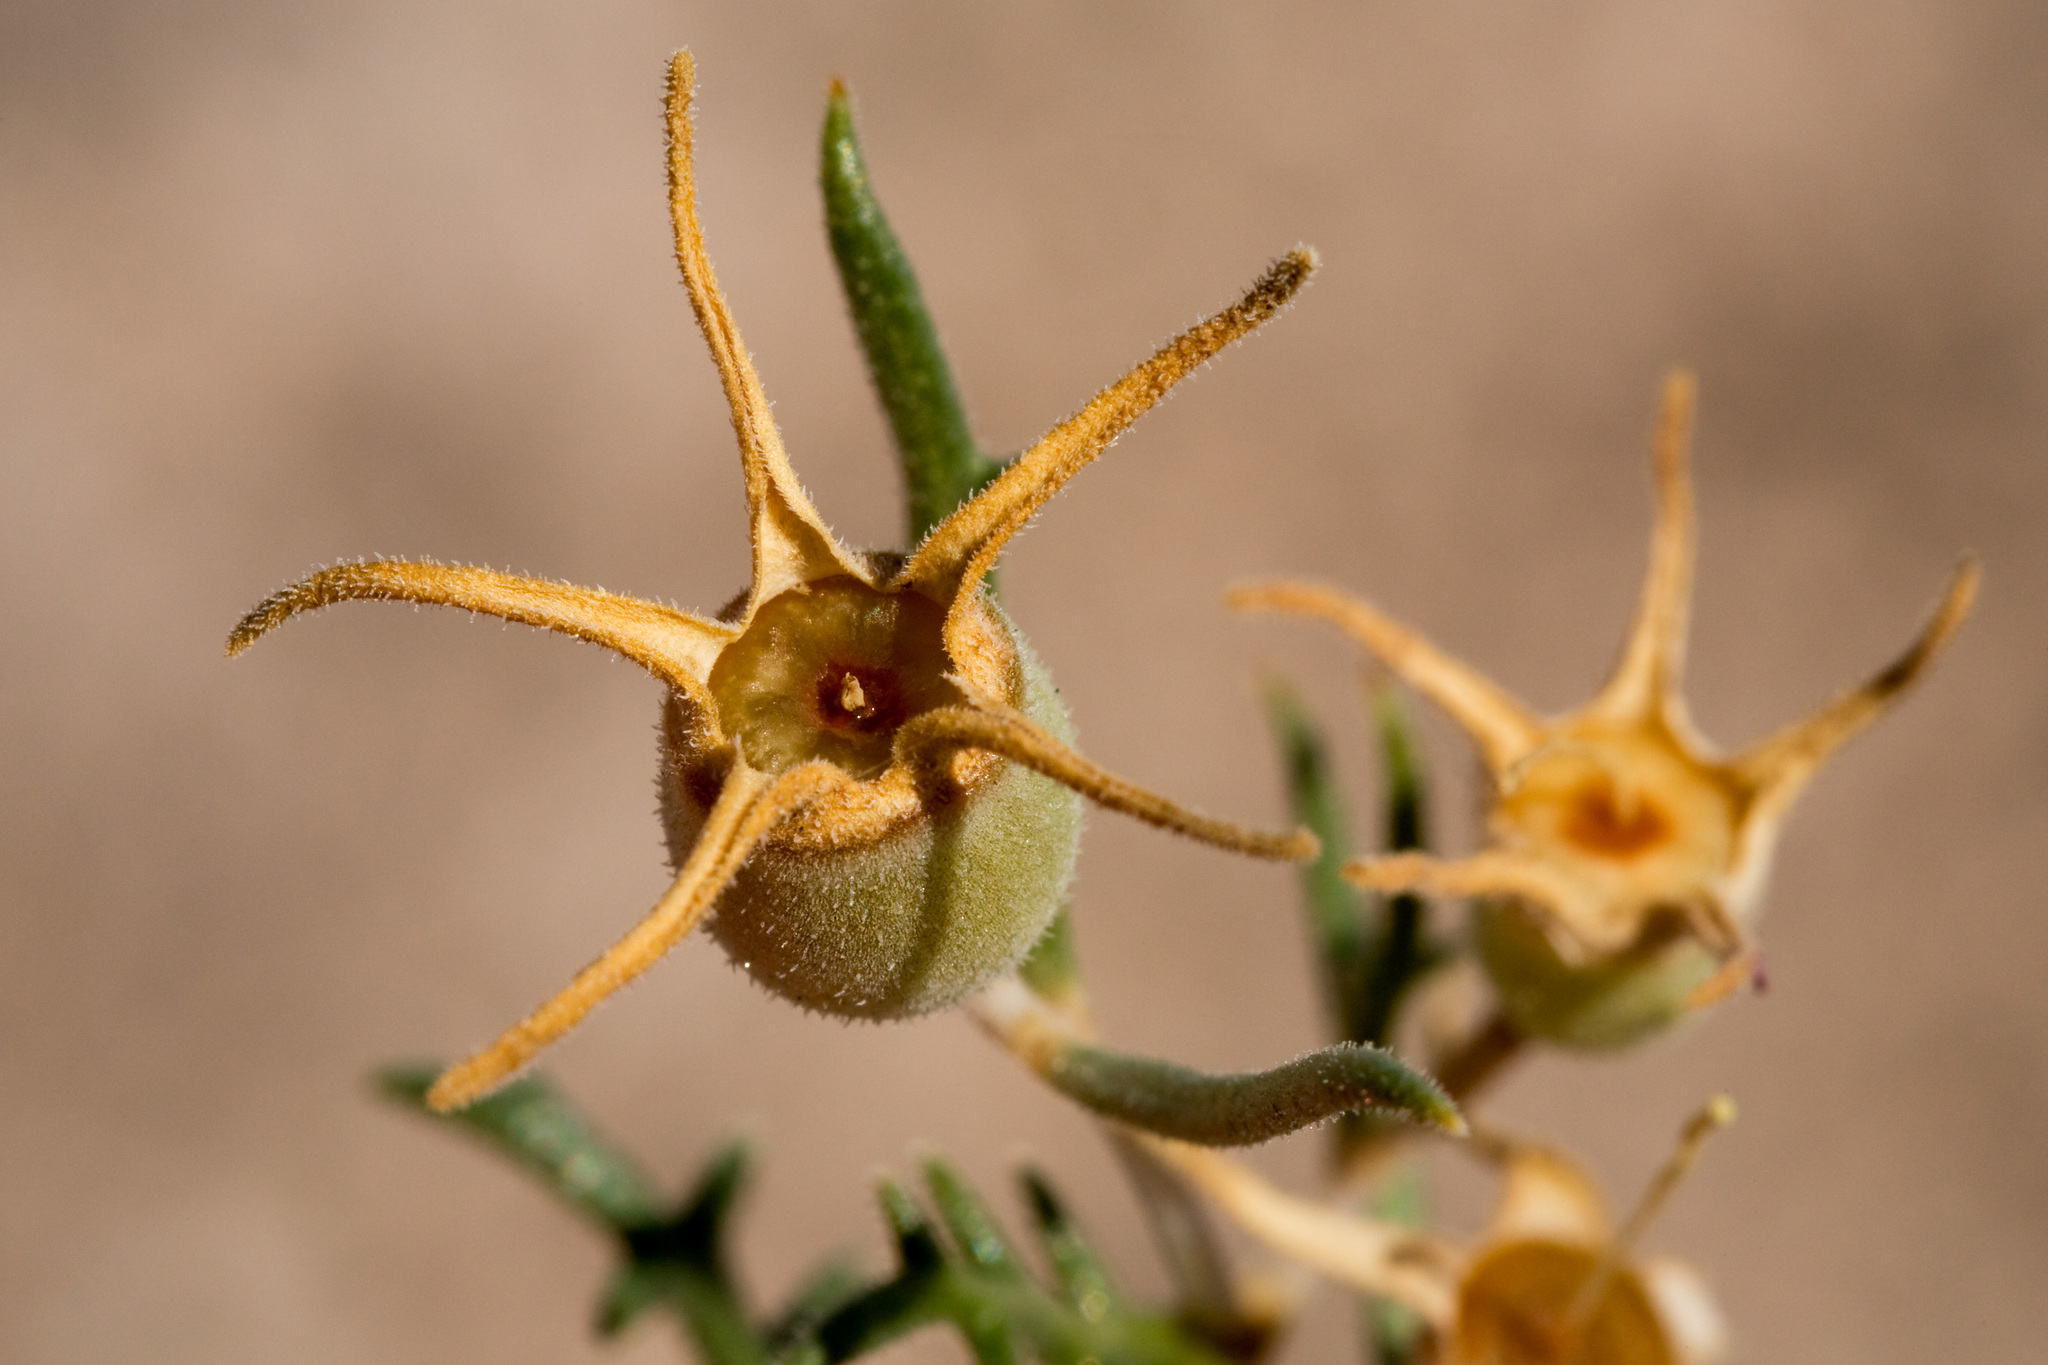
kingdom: Plantae
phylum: Tracheophyta
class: Magnoliopsida
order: Cornales
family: Loasaceae
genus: Mentzelia
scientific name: Mentzelia humilis
